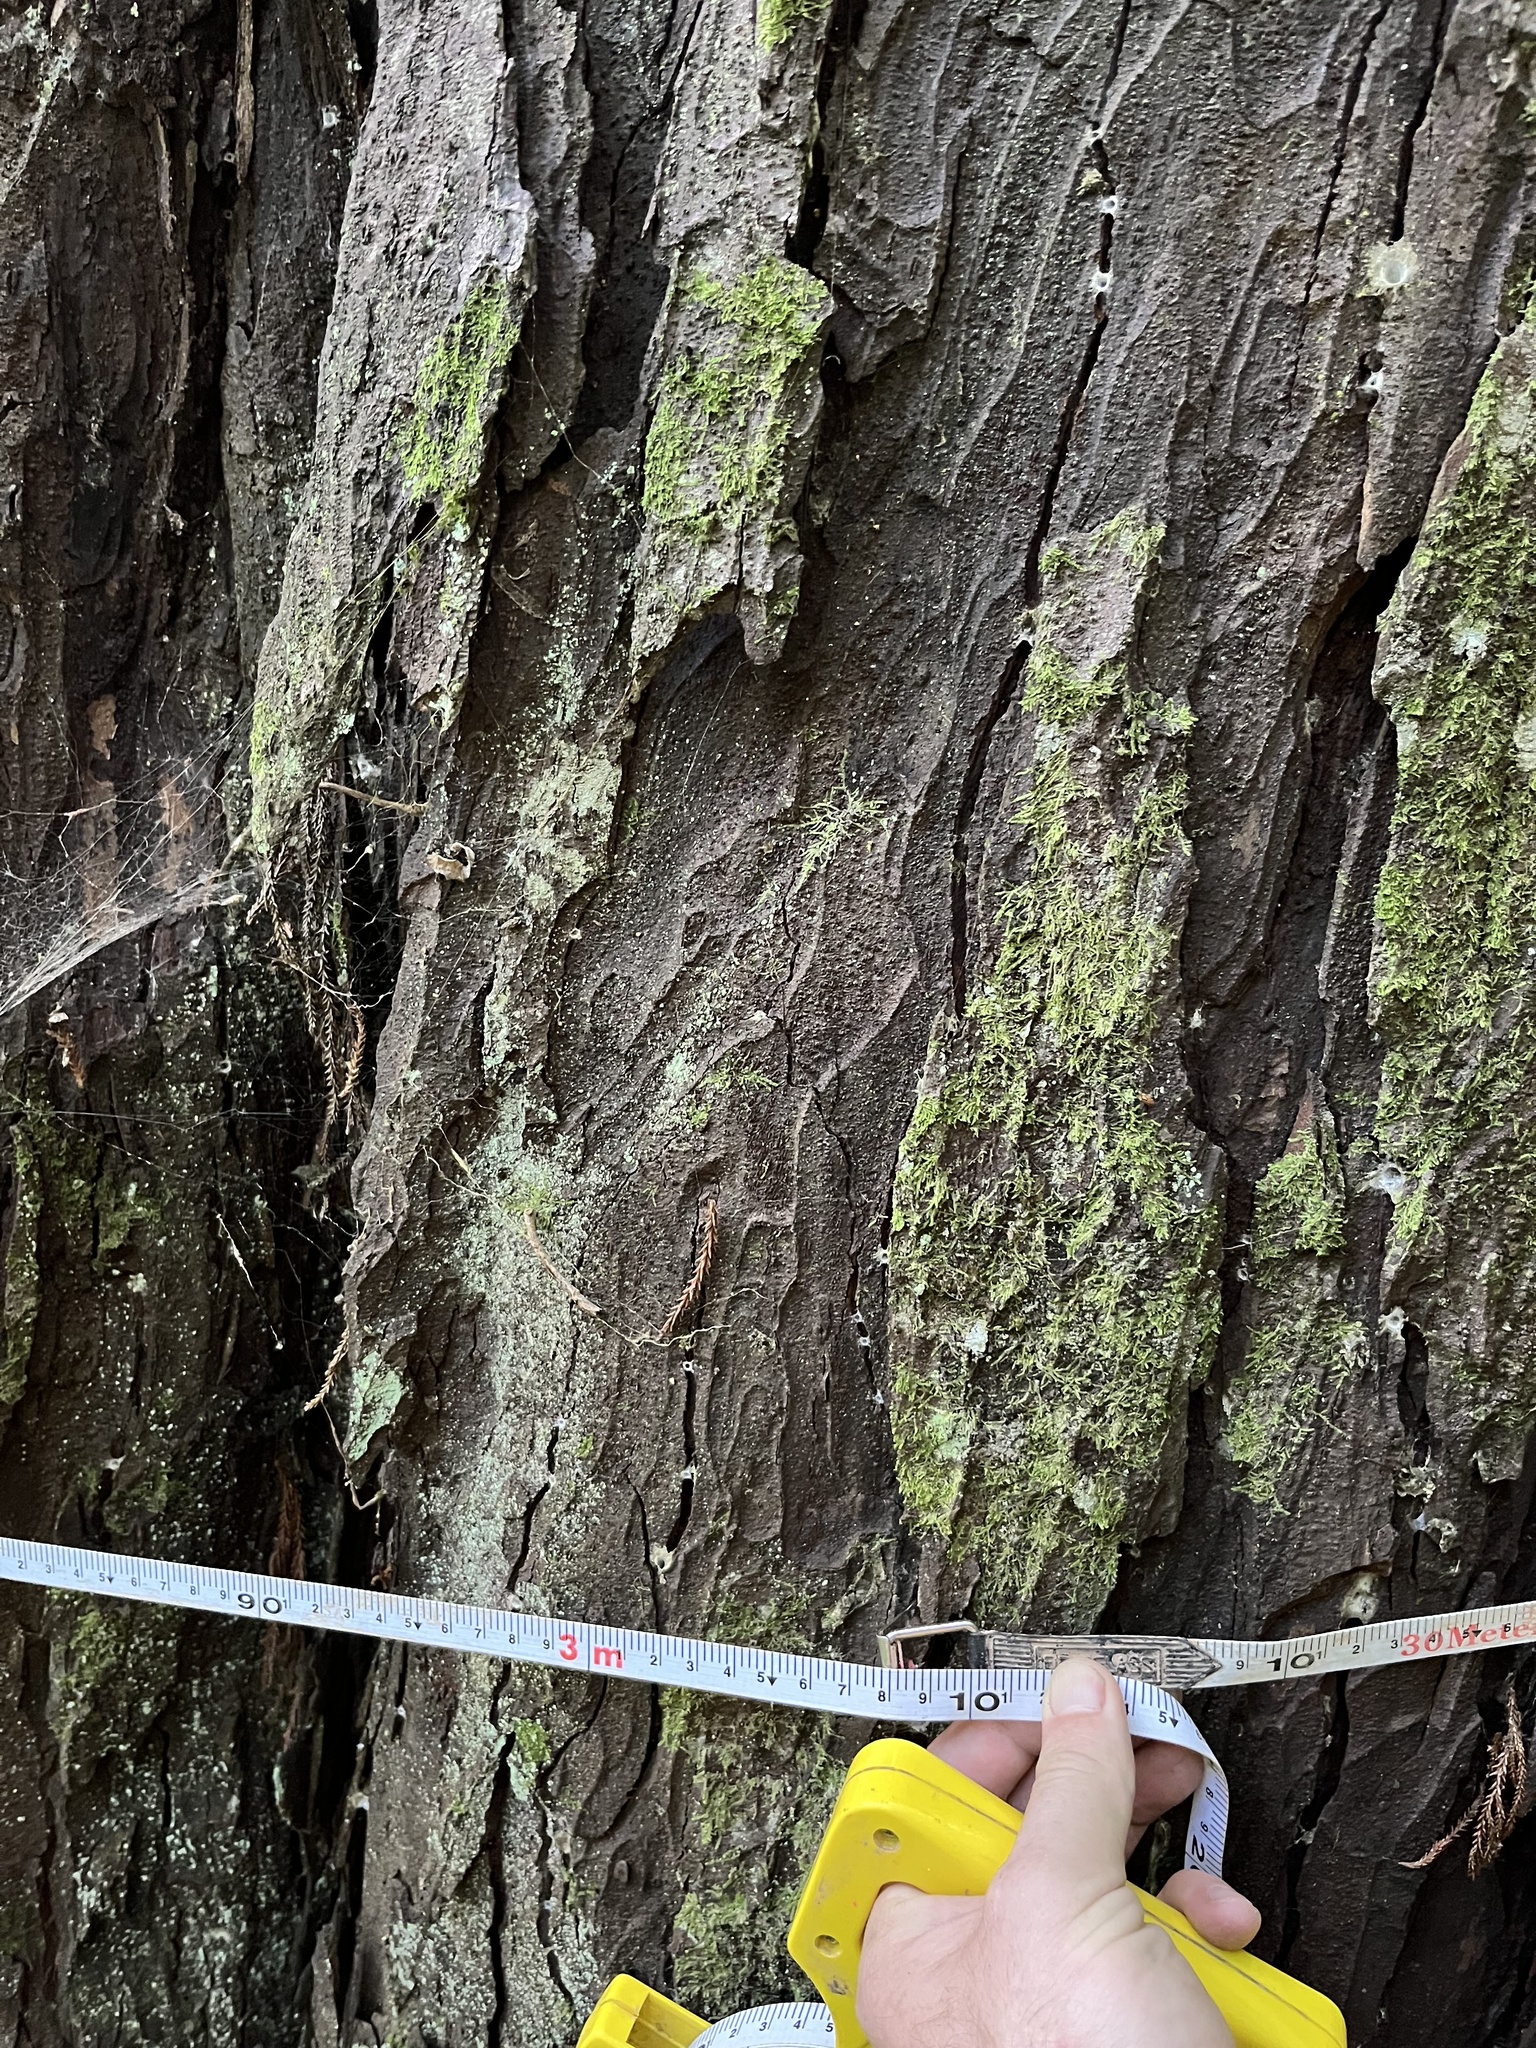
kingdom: Plantae
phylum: Tracheophyta
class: Pinopsida
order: Pinales
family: Podocarpaceae
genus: Dacrydium
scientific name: Dacrydium cupressinum
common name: Red pine
